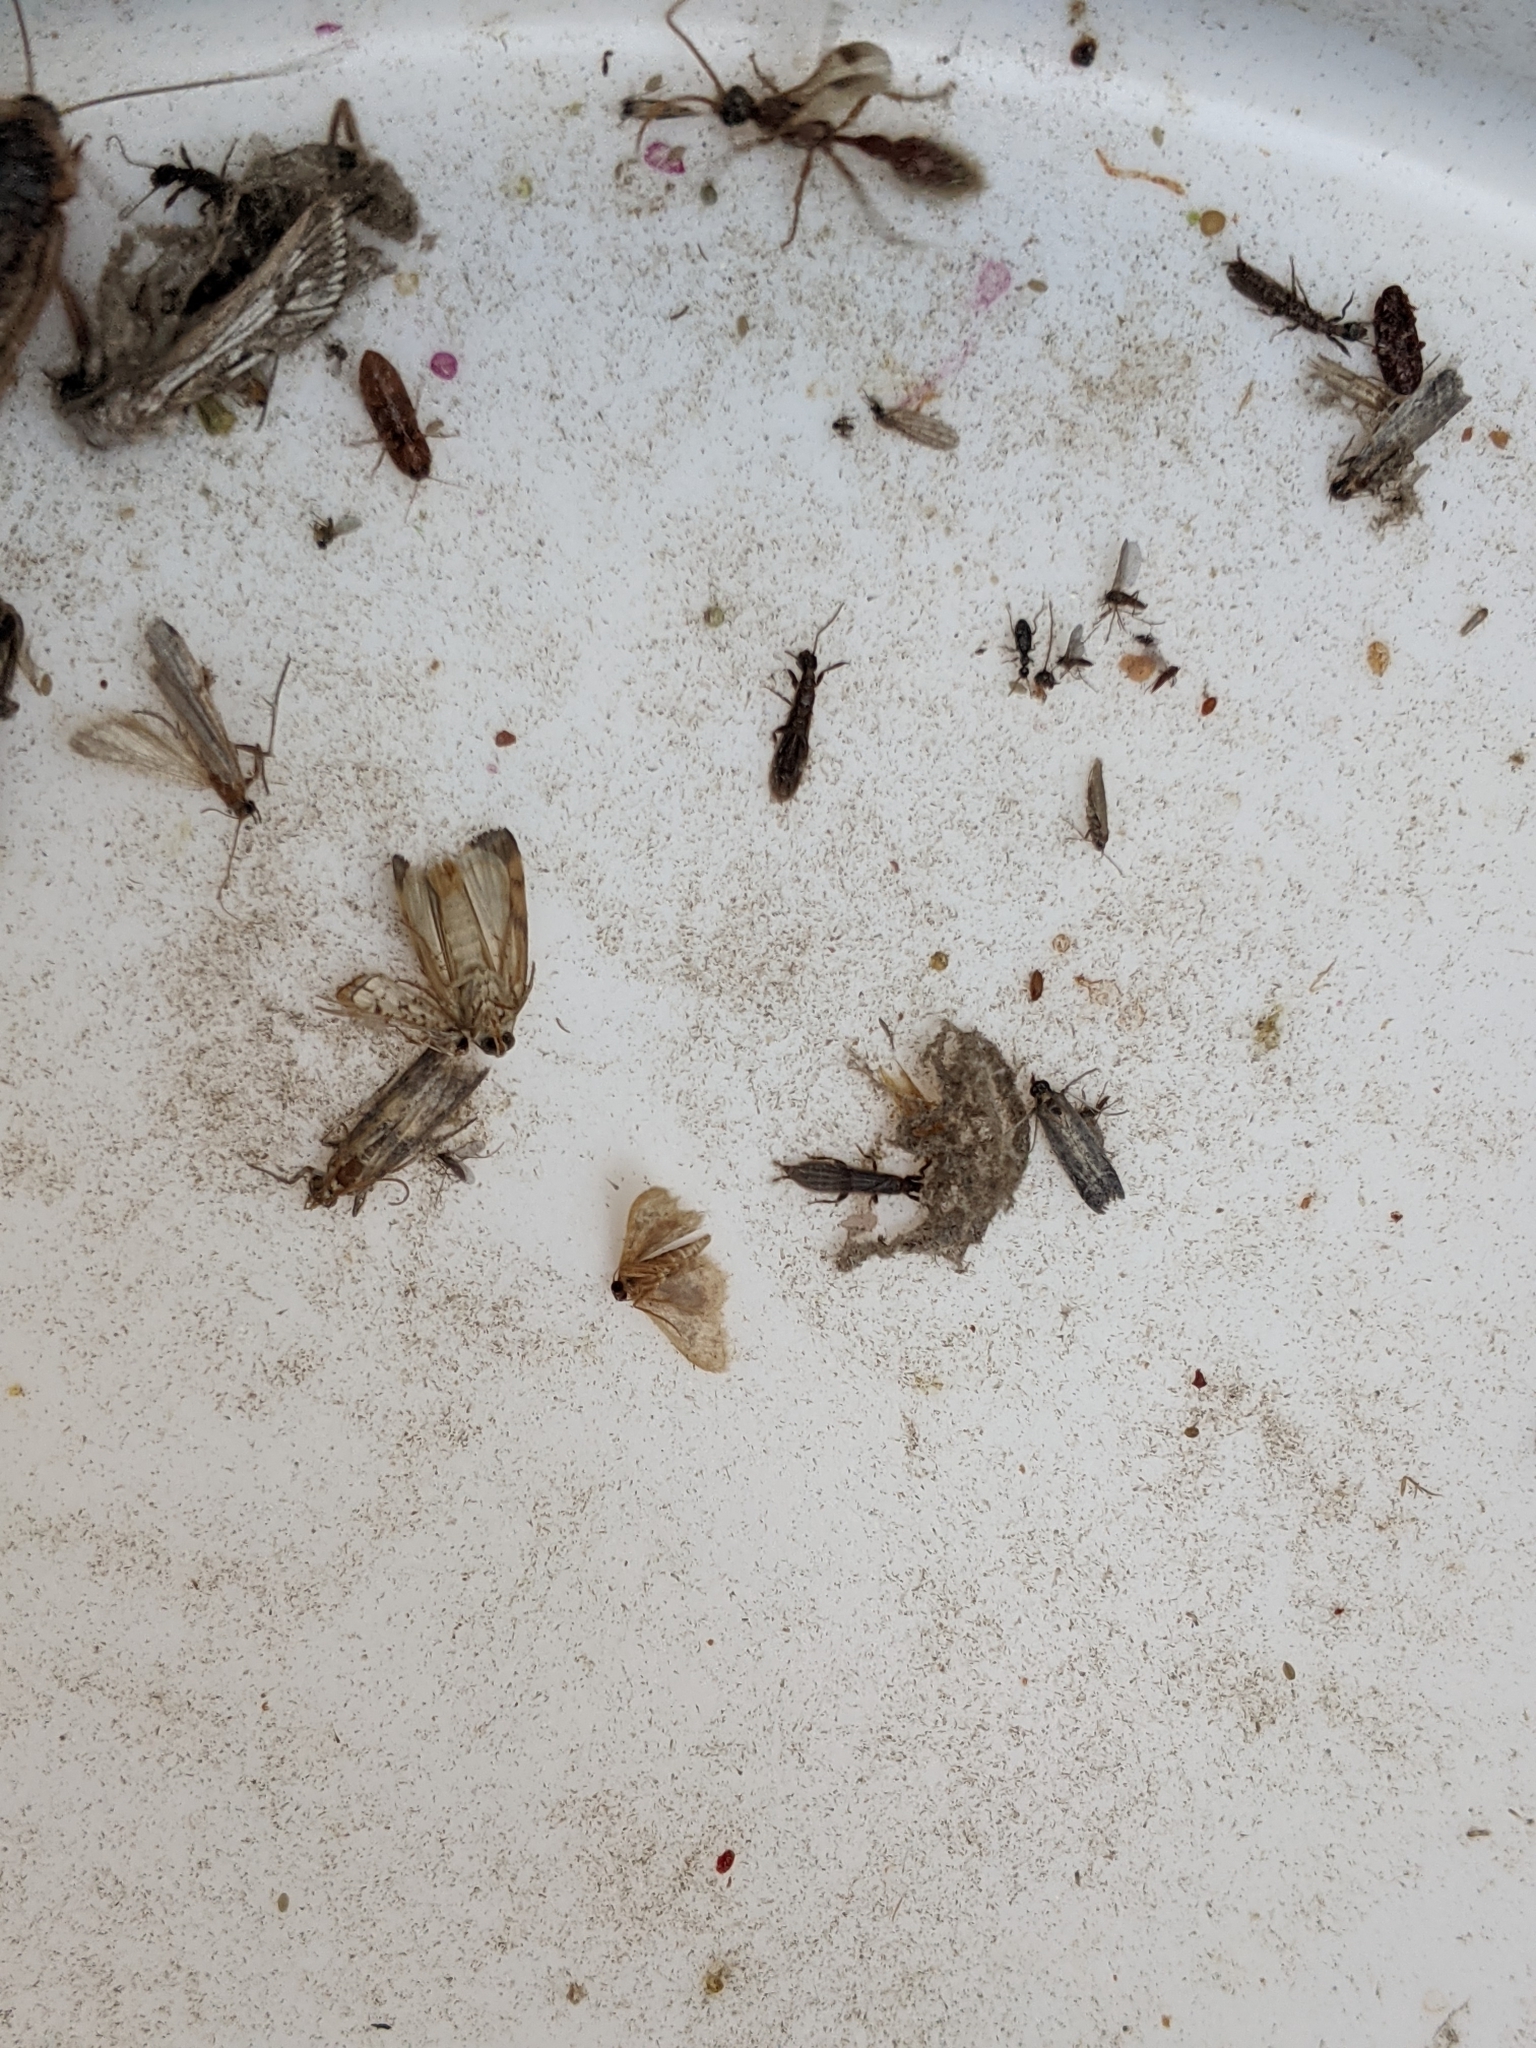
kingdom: Animalia
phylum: Arthropoda
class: Insecta
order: Embioptera
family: Oligotomidae
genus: Oligotoma
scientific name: Oligotoma nigra
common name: Black webspinner
